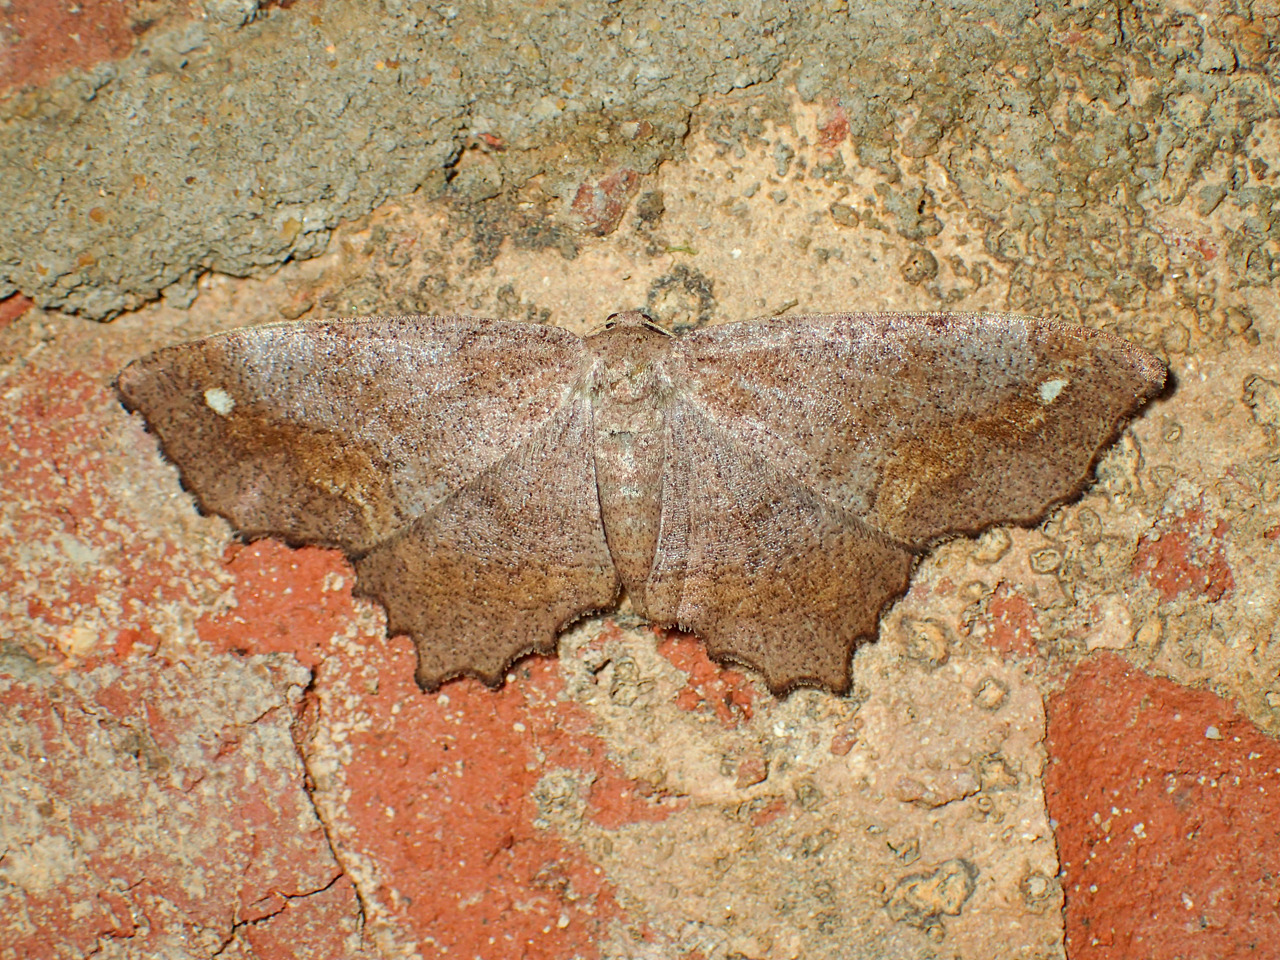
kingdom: Animalia
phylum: Arthropoda
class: Insecta
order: Lepidoptera
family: Geometridae
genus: Hypagyrtis
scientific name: Hypagyrtis unipunctata
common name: One-spotted variant
